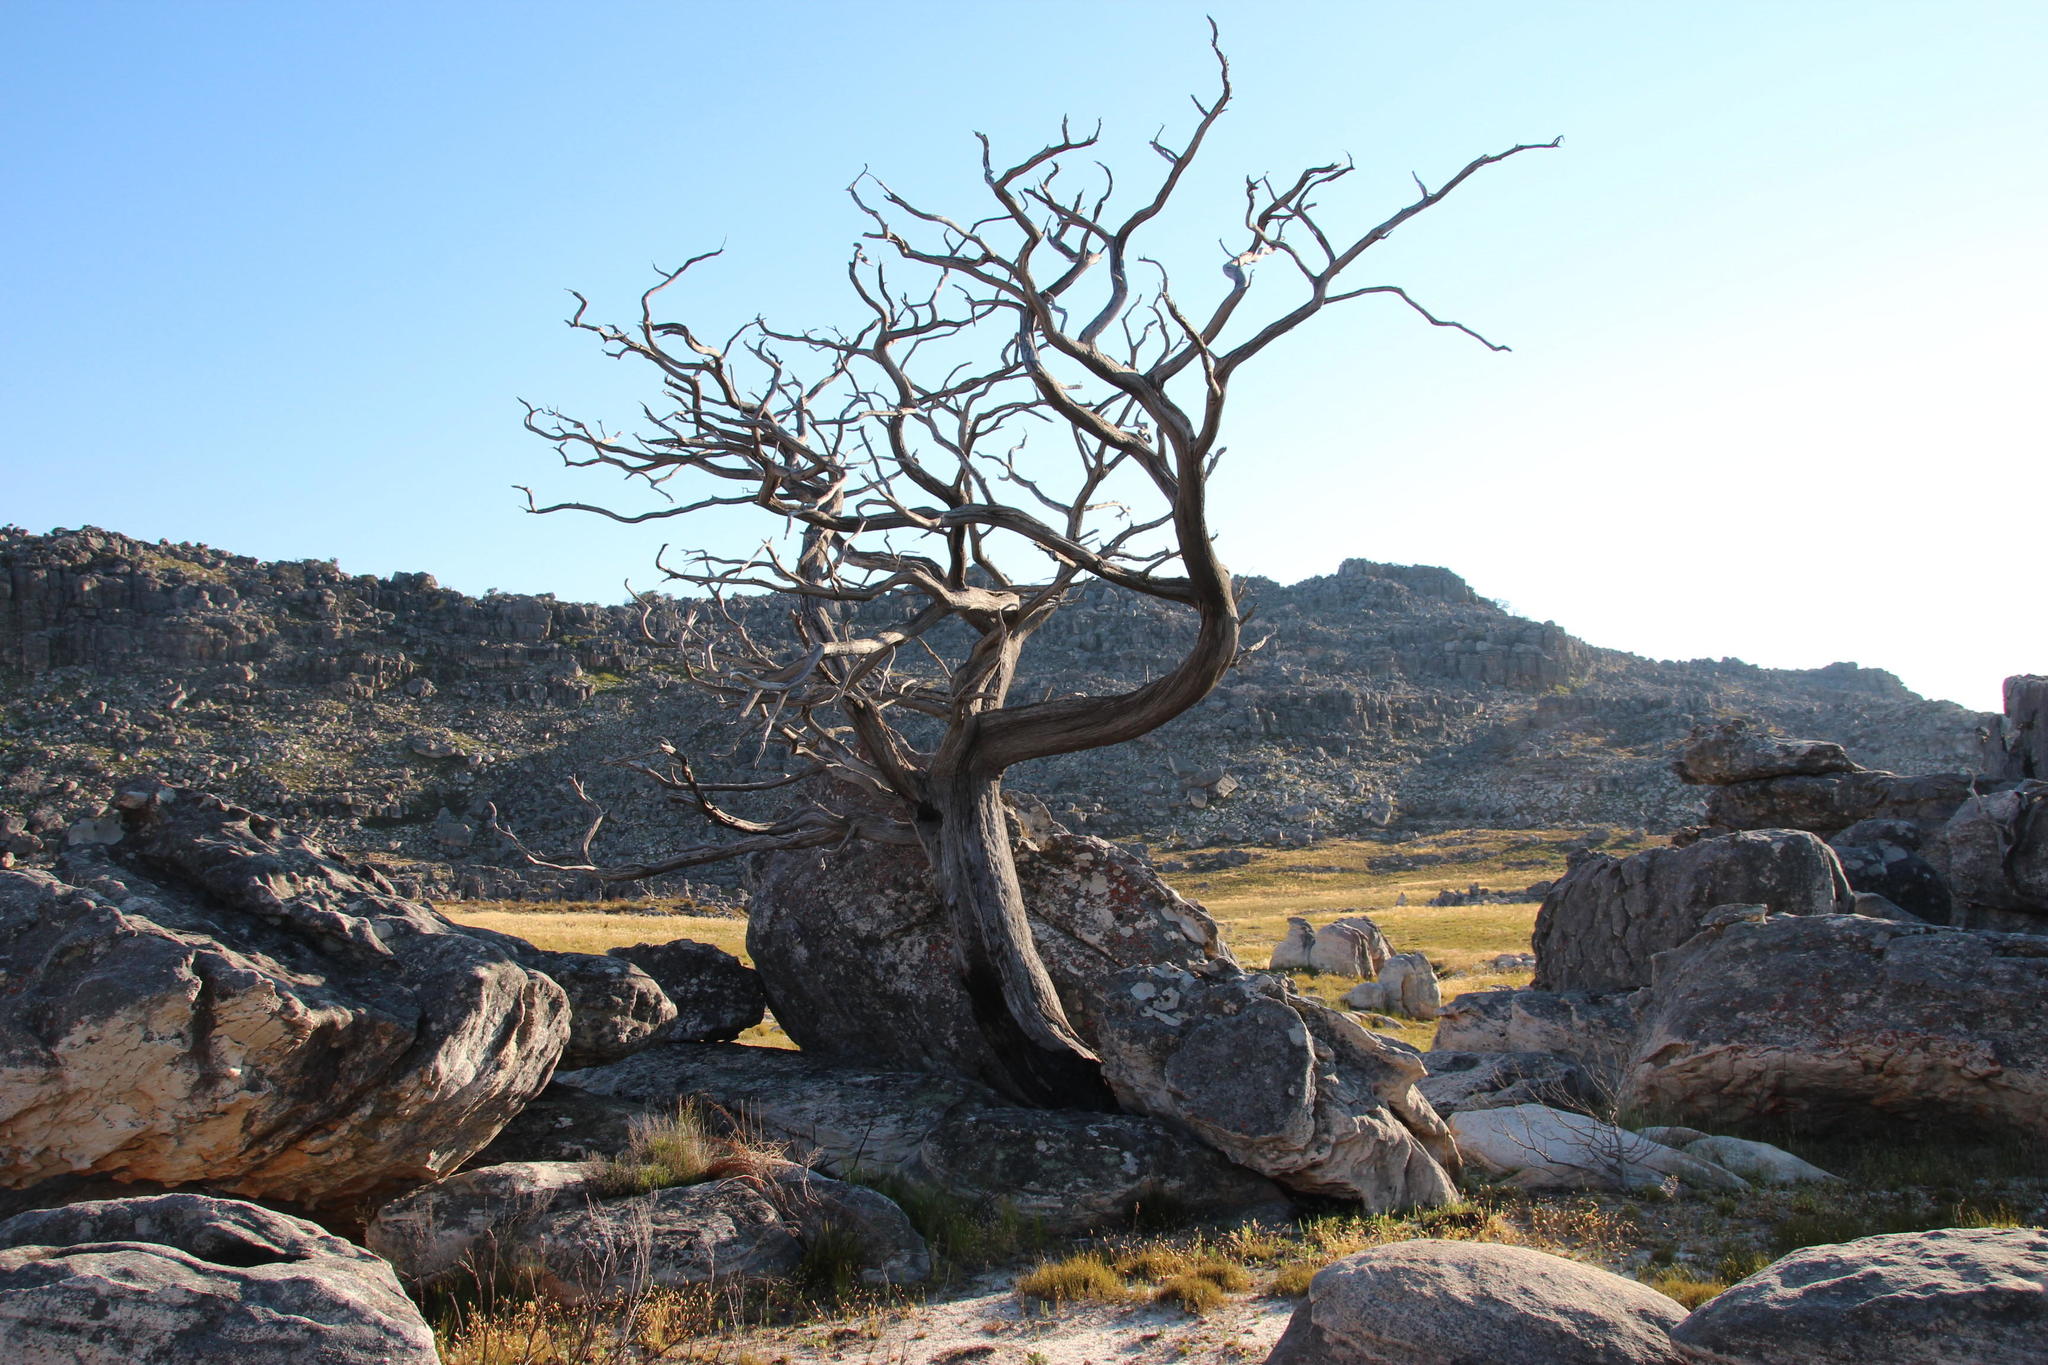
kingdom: Plantae
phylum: Tracheophyta
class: Pinopsida
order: Pinales
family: Cupressaceae
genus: Widdringtonia
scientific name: Widdringtonia nodiflora
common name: Cape cypress
